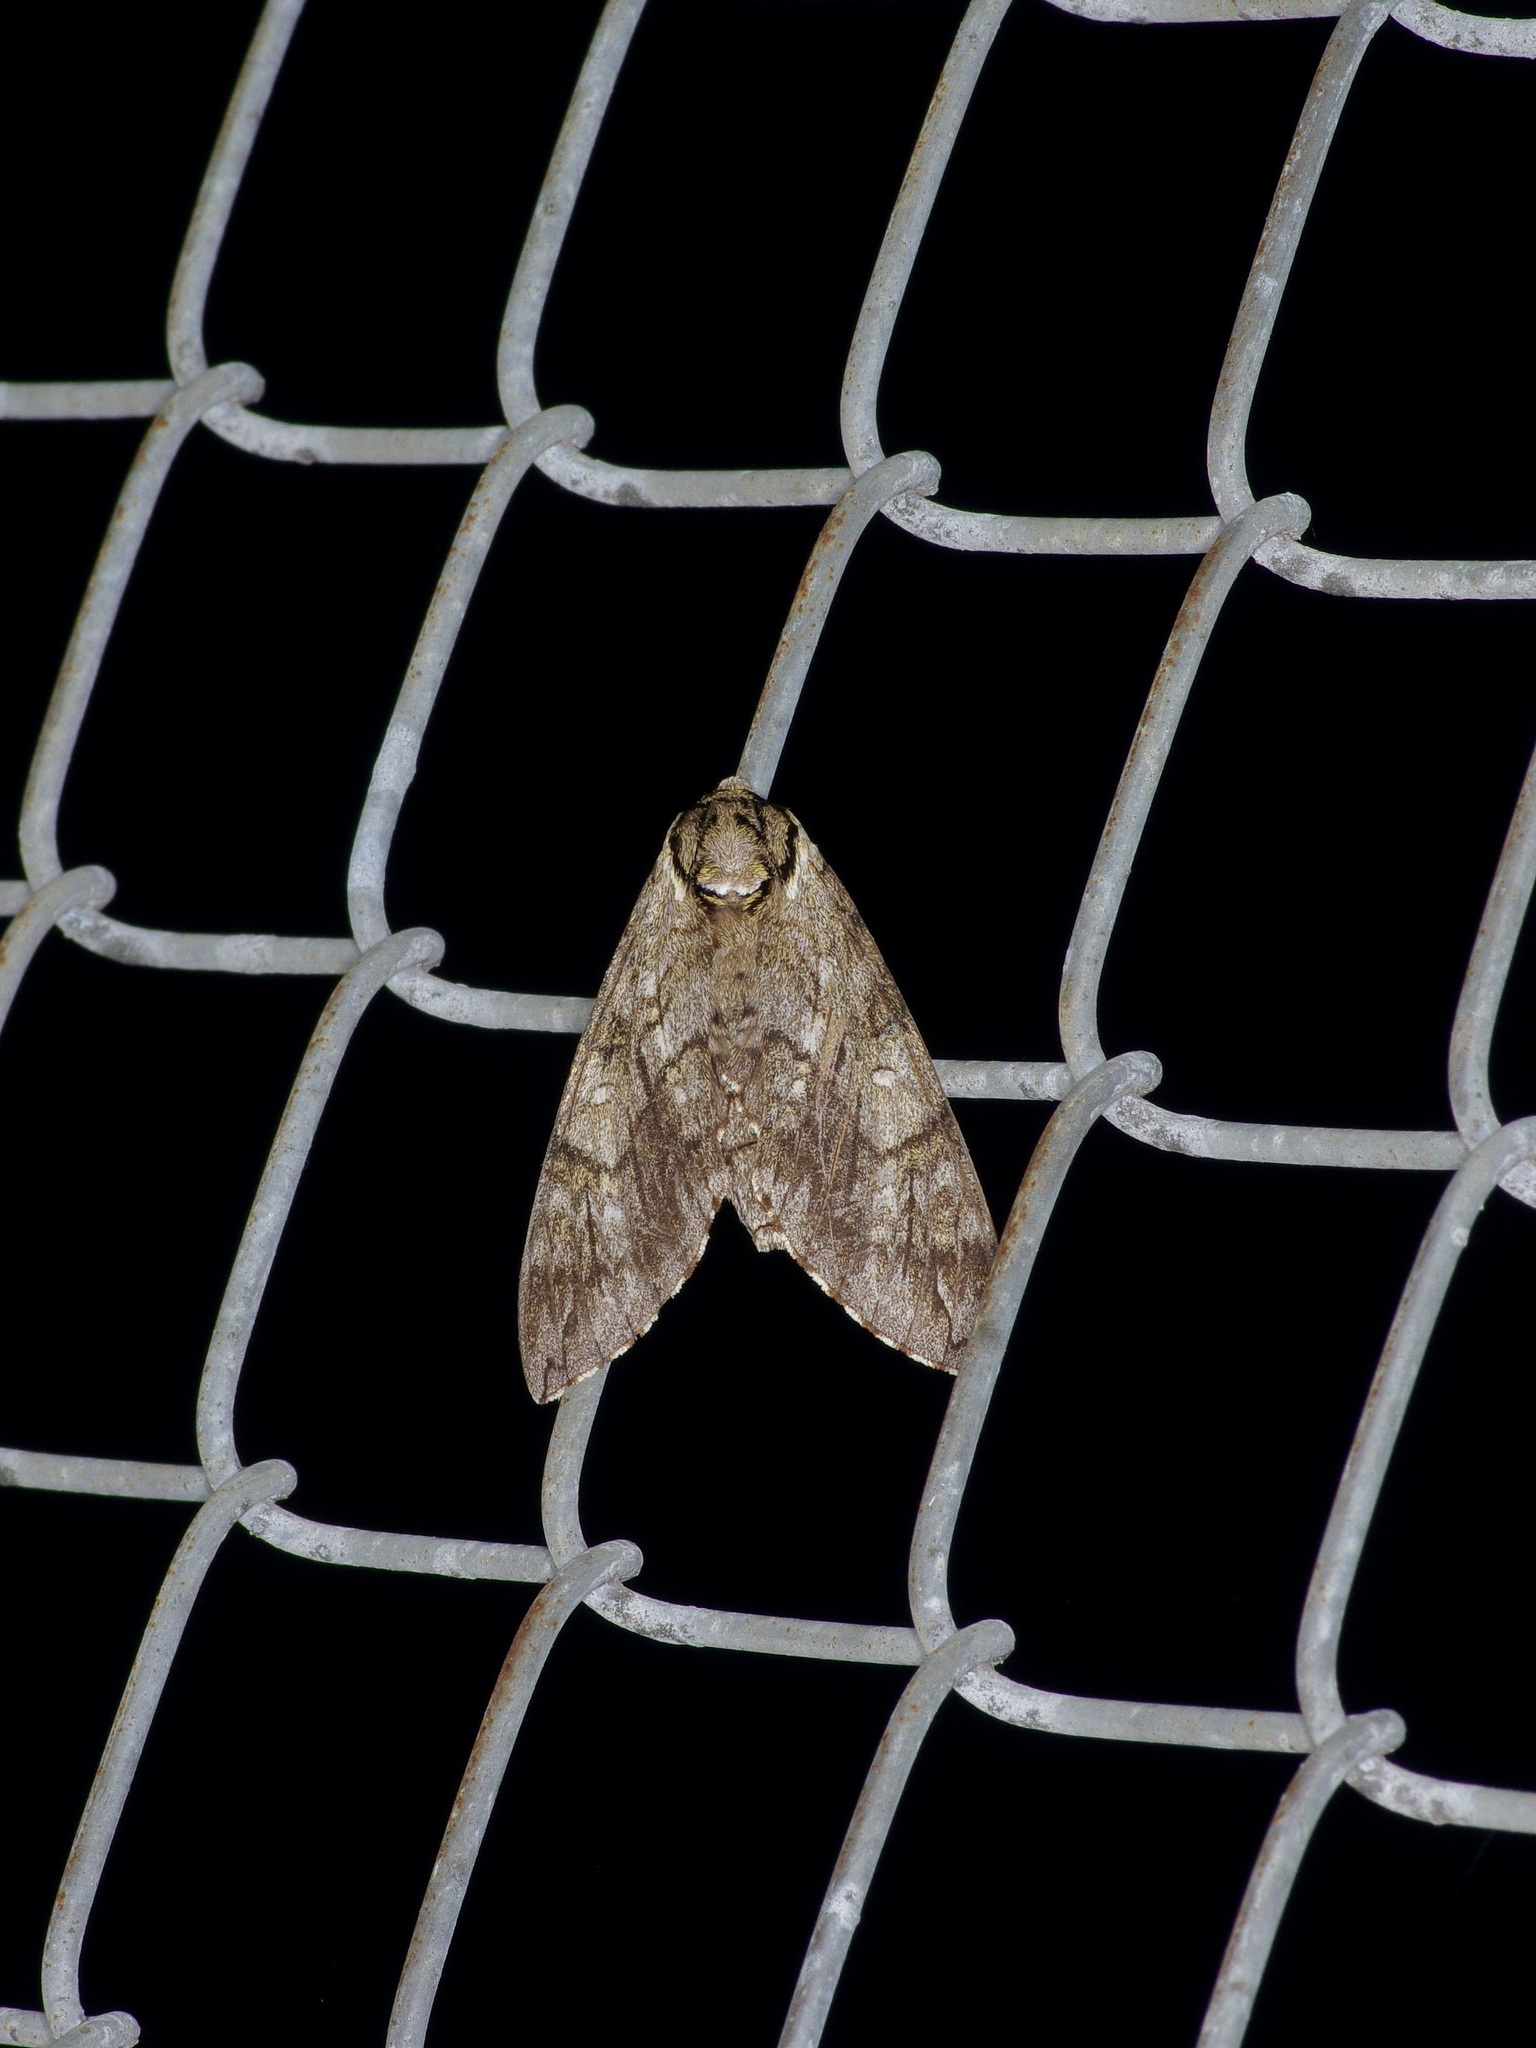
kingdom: Animalia
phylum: Arthropoda
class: Insecta
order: Lepidoptera
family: Sphingidae
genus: Ceratomia
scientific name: Ceratomia undulosa
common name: Waved sphinx
